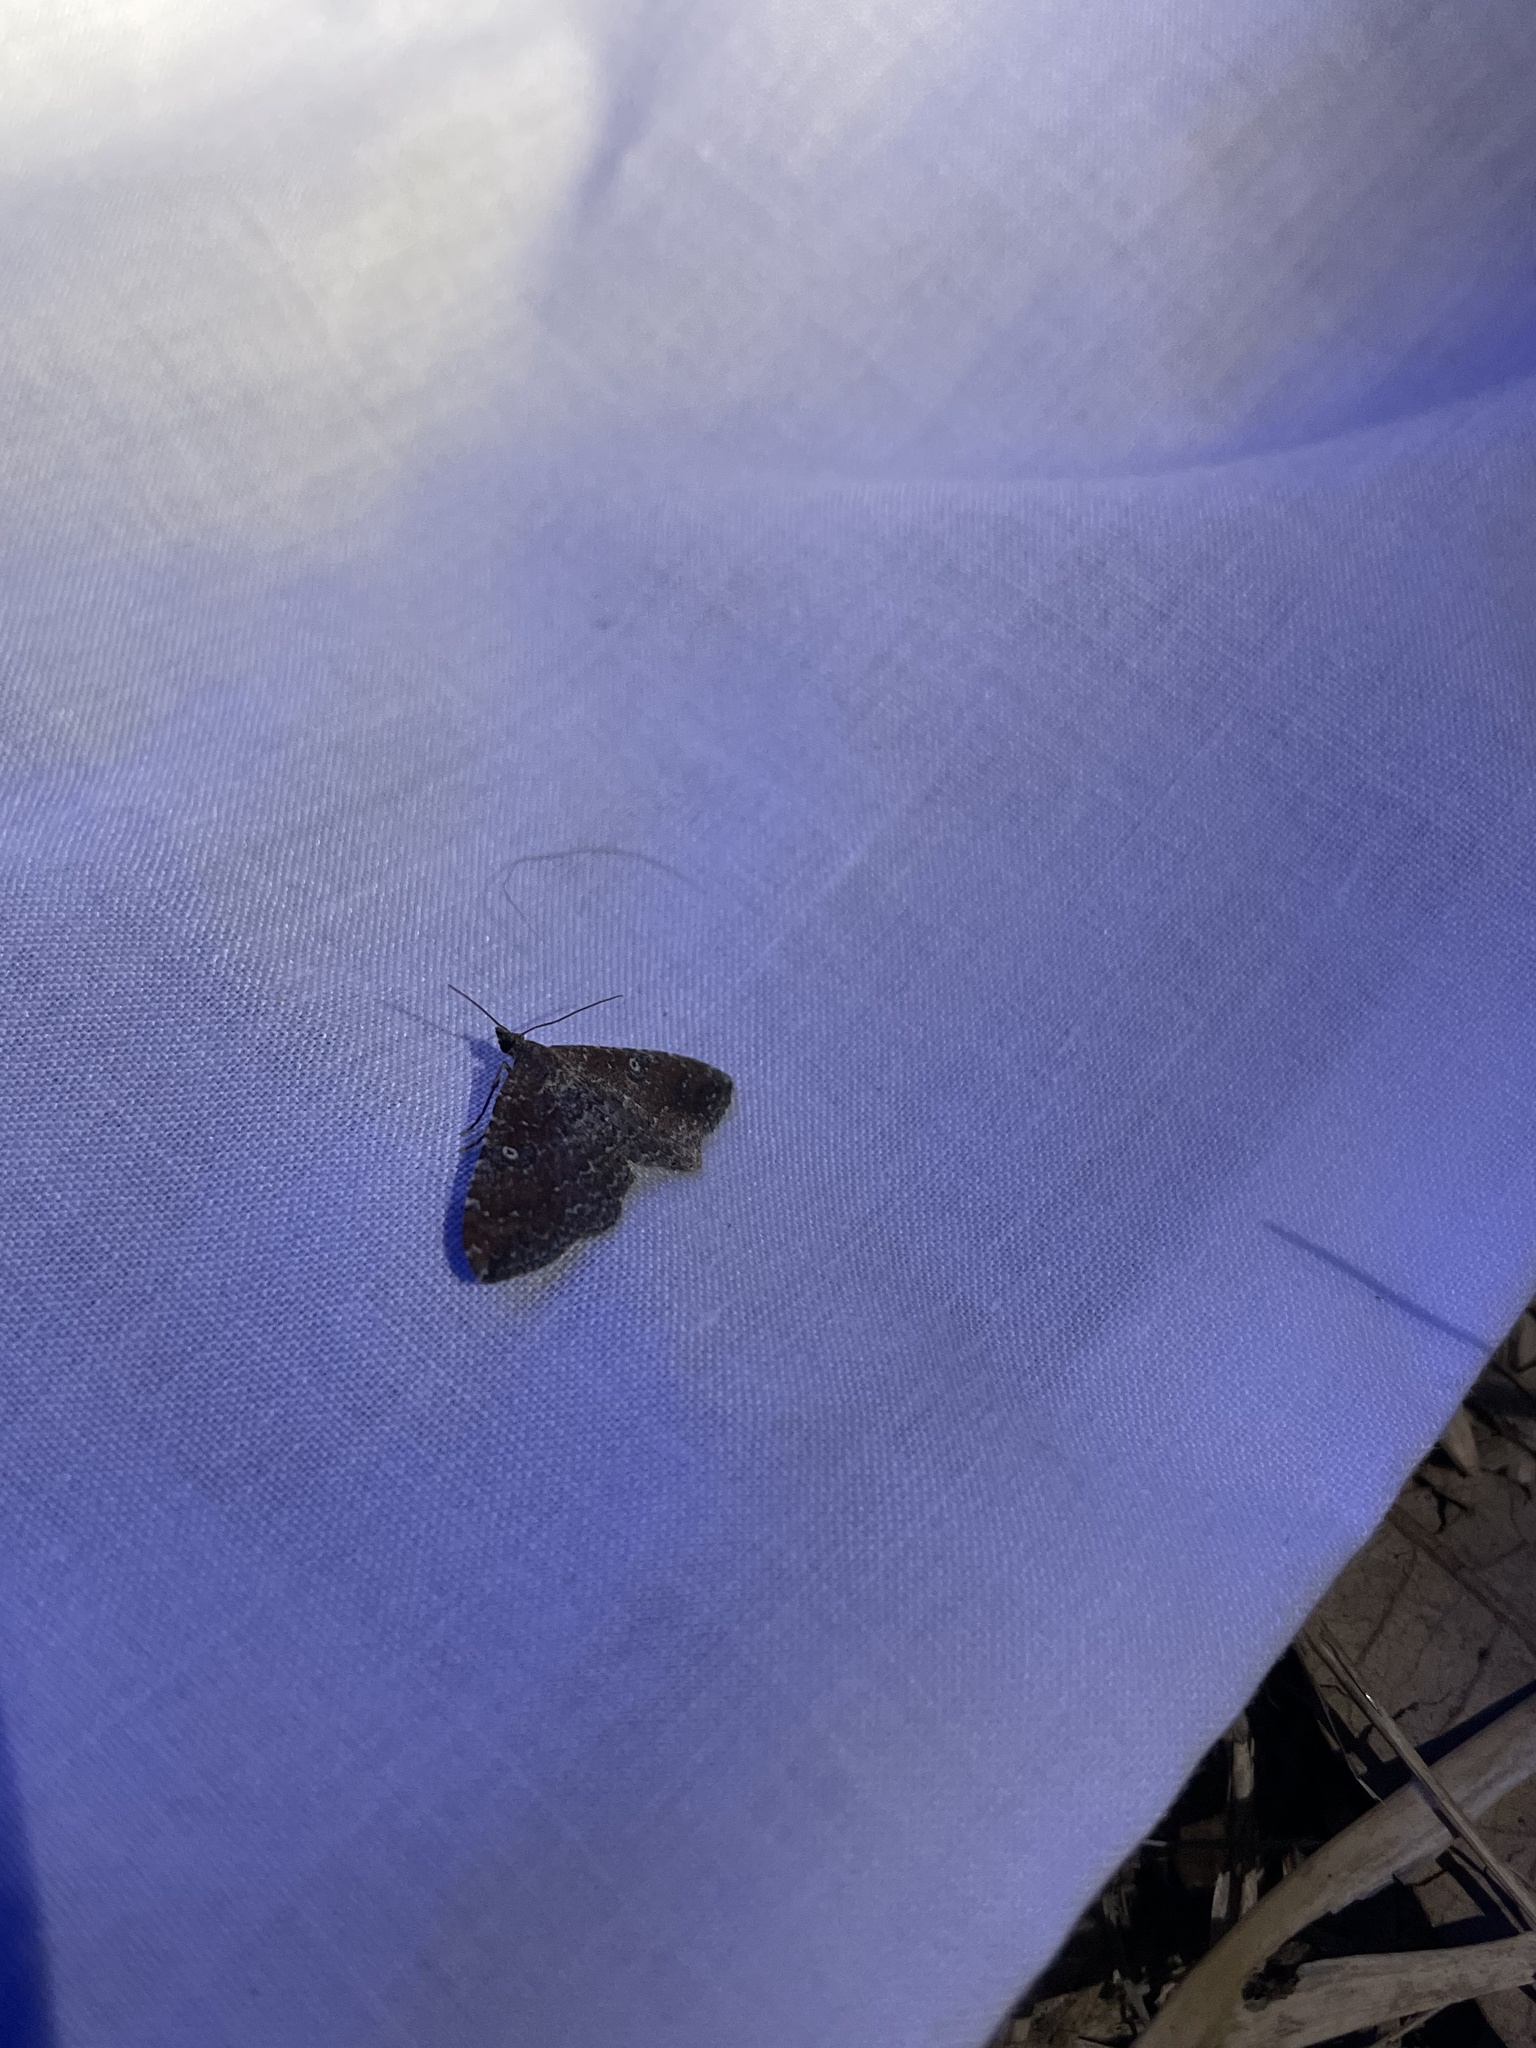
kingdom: Animalia
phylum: Arthropoda
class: Insecta
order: Lepidoptera
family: Geometridae
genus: Orthonama
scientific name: Orthonama obstipata
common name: The gem
